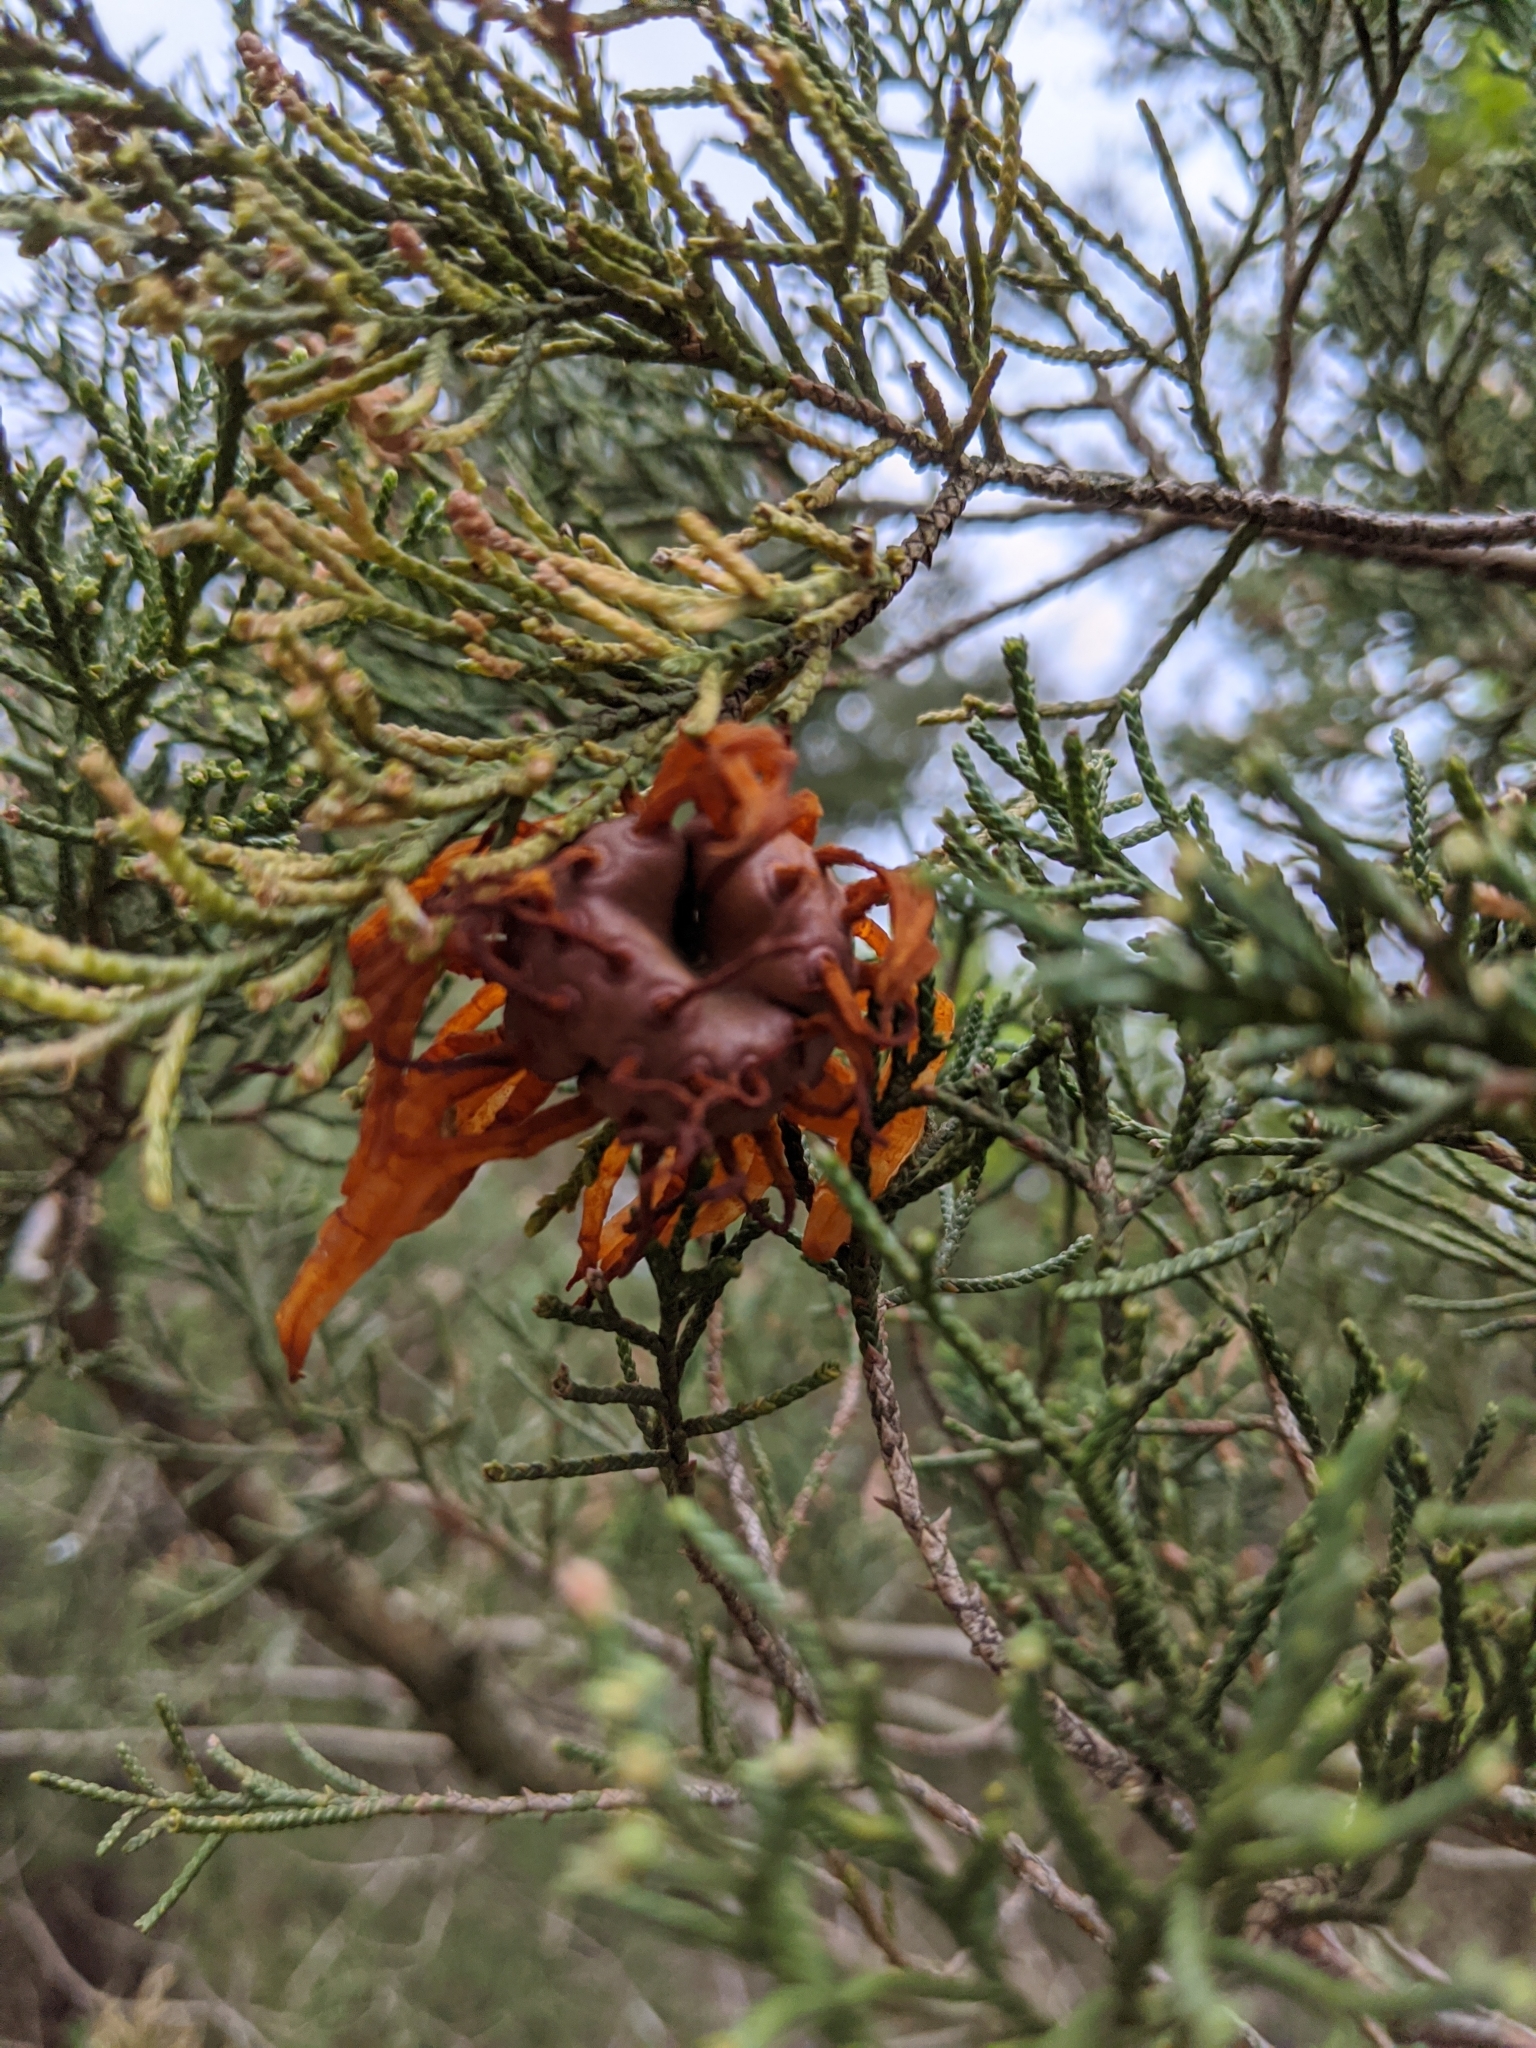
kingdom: Fungi
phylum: Basidiomycota
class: Pucciniomycetes
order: Pucciniales
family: Gymnosporangiaceae
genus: Gymnosporangium
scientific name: Gymnosporangium juniperi-virginianae
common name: Juniper-apple rust
